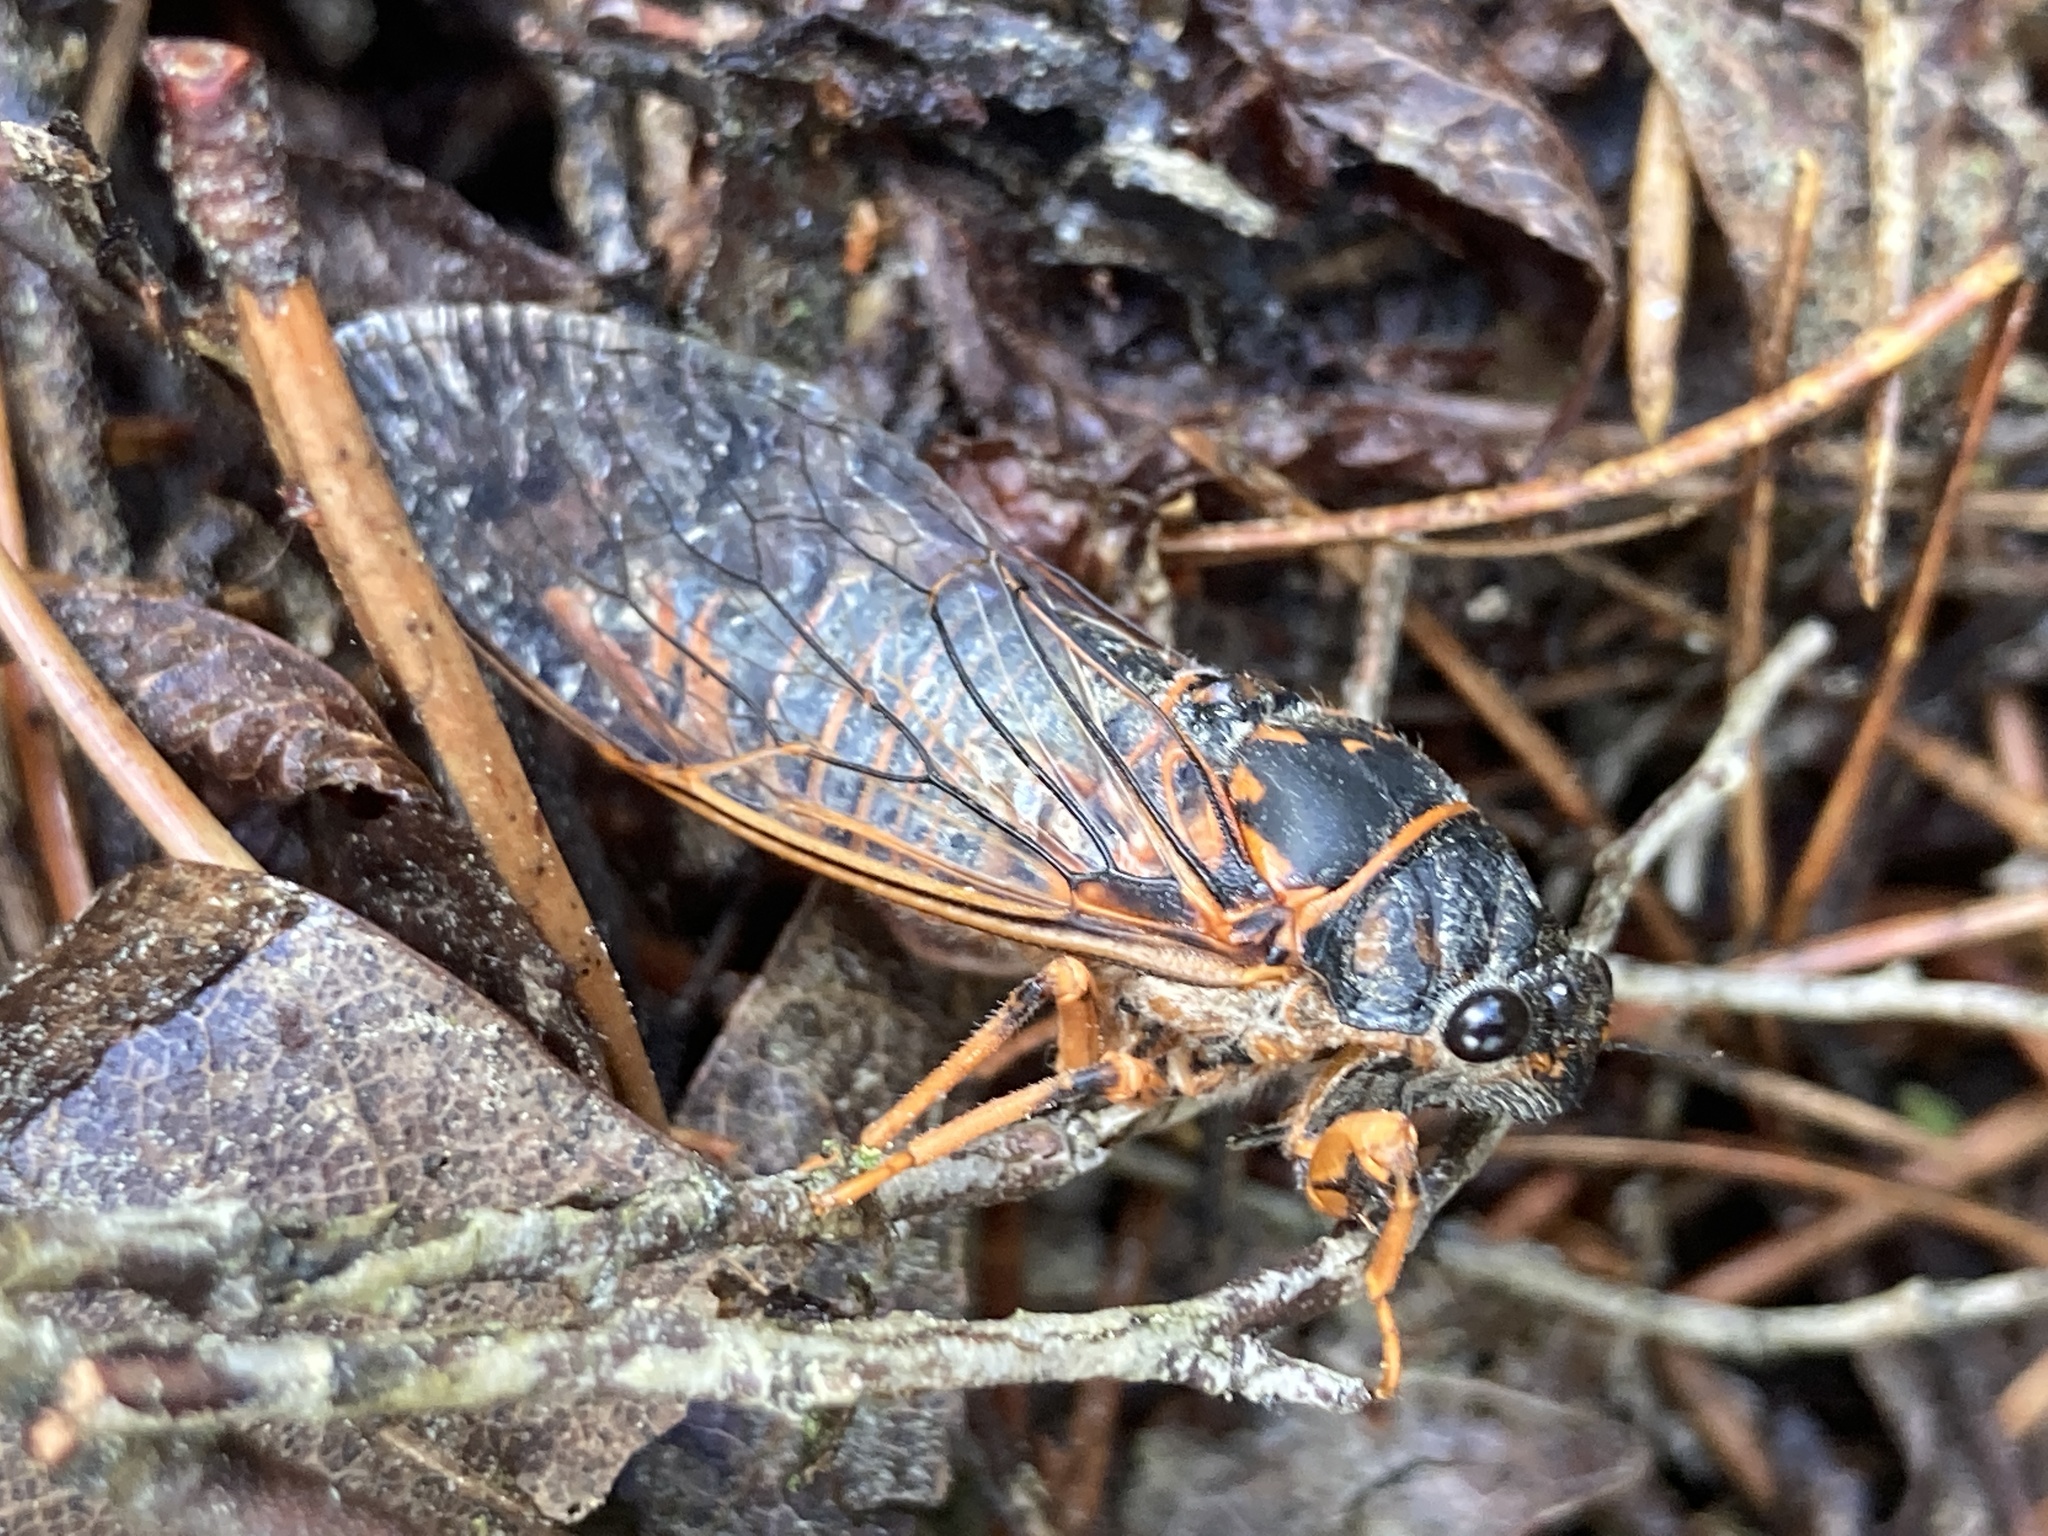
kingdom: Animalia
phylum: Arthropoda
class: Insecta
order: Hemiptera
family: Cicadidae
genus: Okanagana
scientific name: Okanagana rimosa
